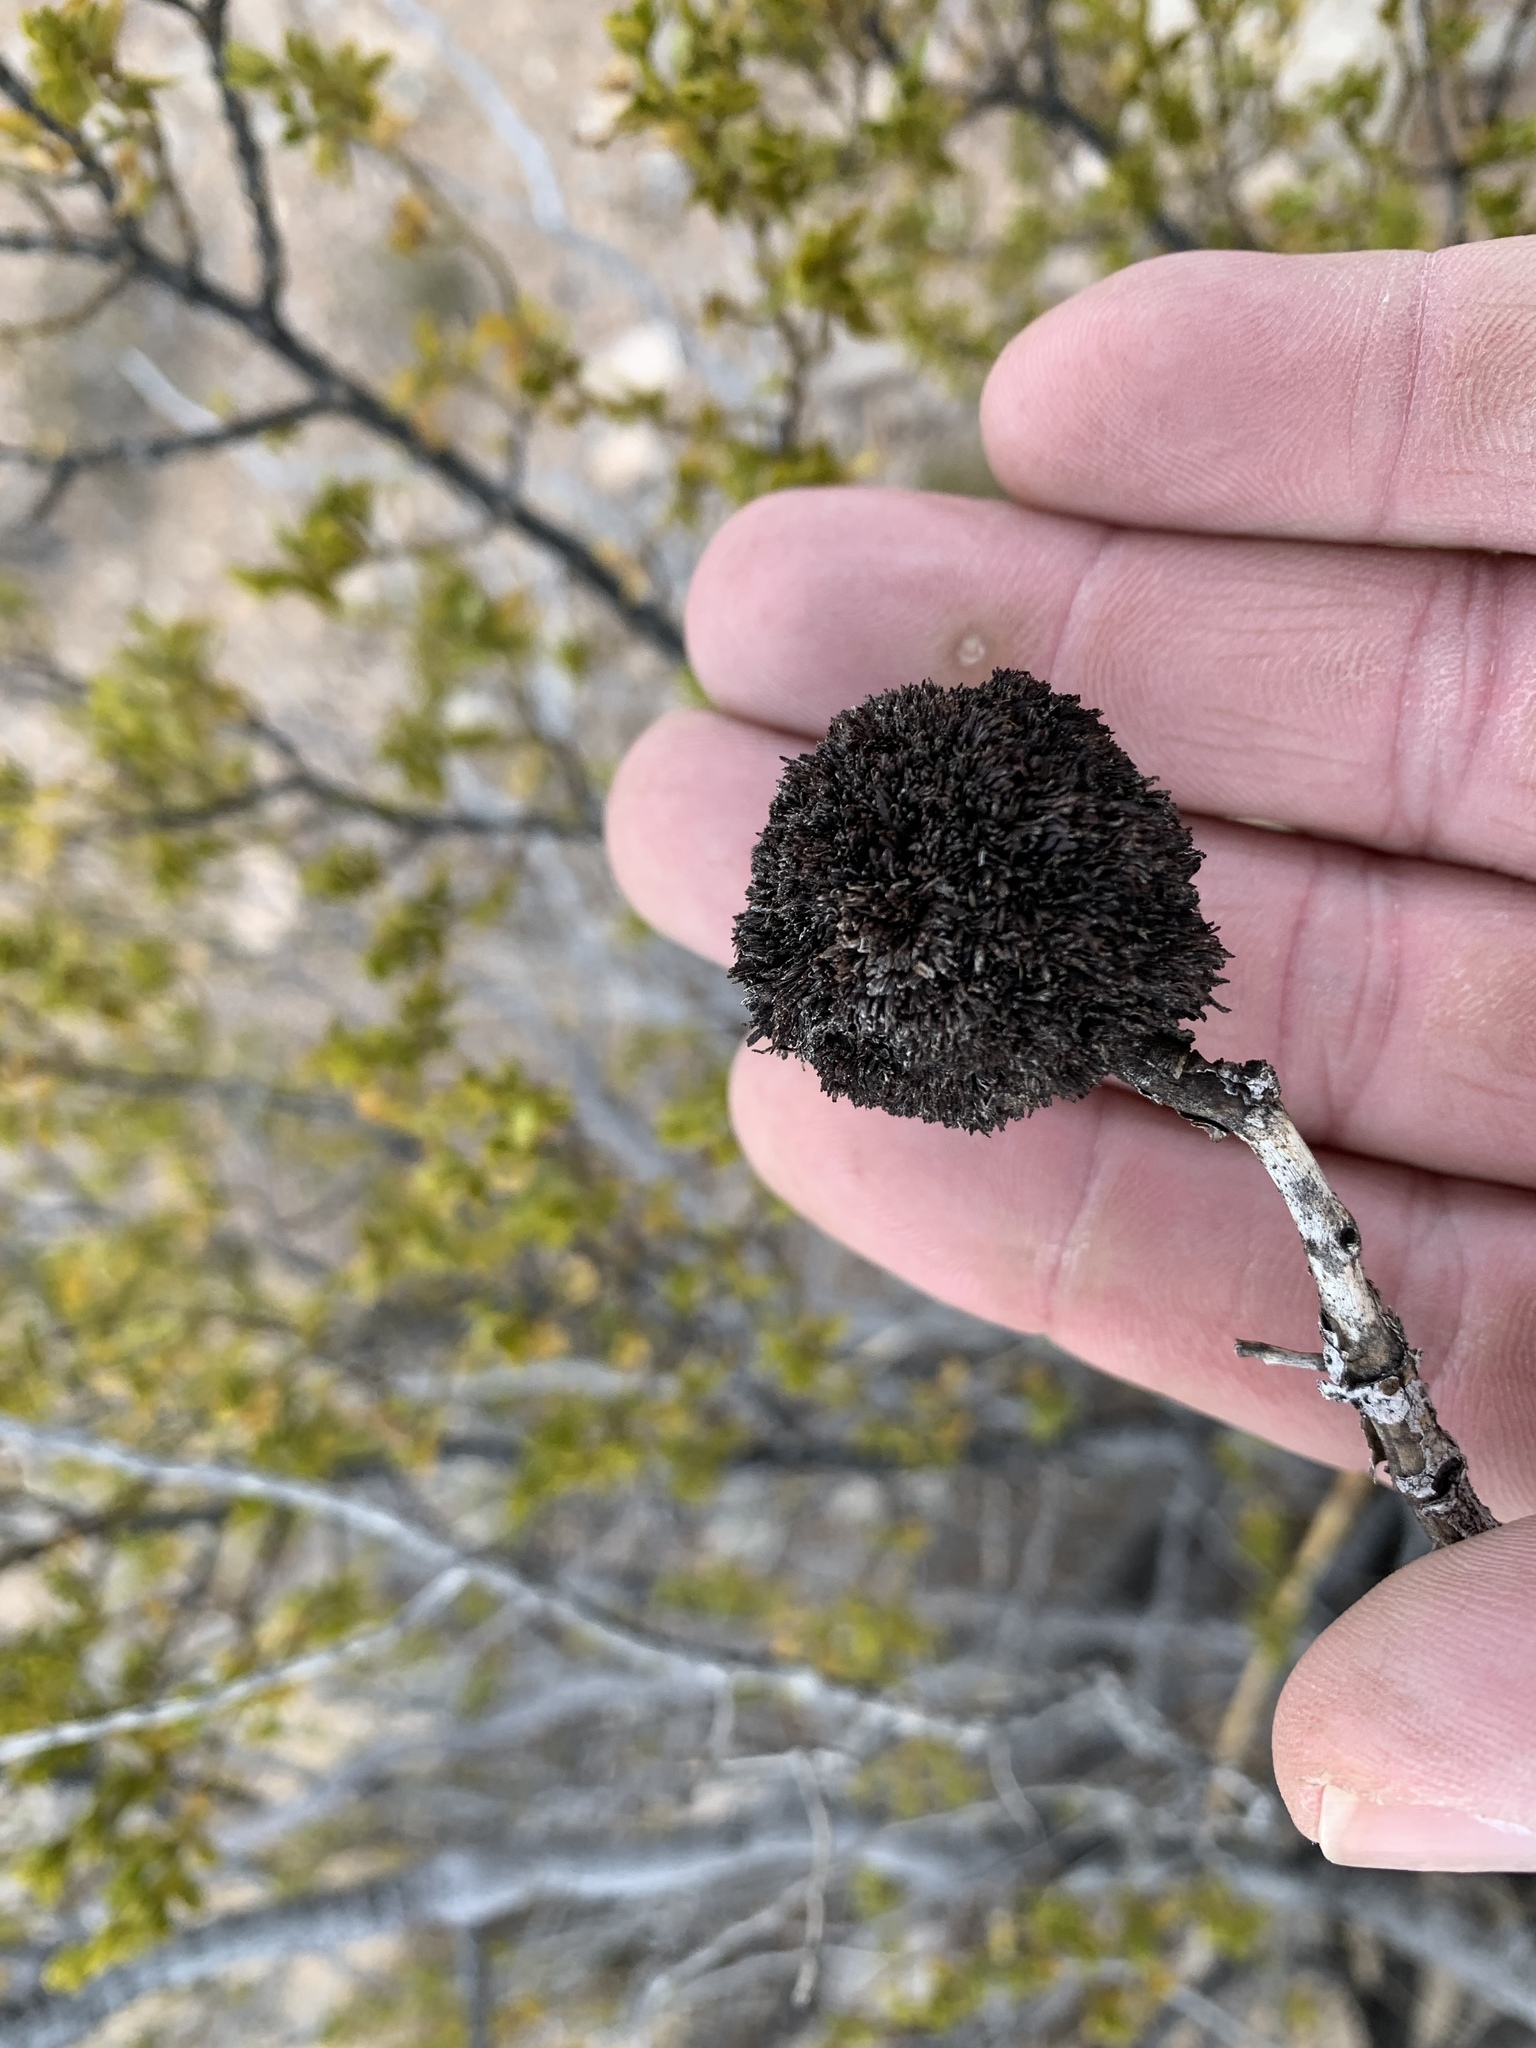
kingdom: Animalia
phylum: Arthropoda
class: Insecta
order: Diptera
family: Cecidomyiidae
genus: Asphondylia
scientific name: Asphondylia auripila
